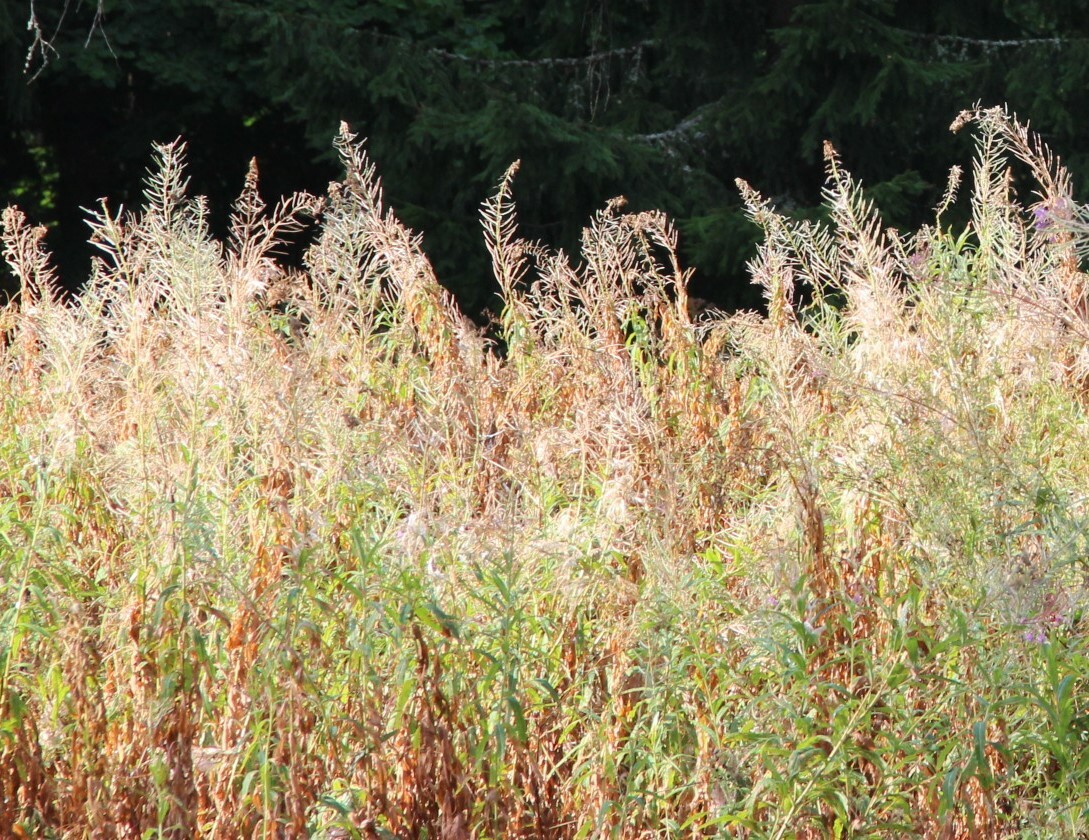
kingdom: Plantae
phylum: Tracheophyta
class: Magnoliopsida
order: Myrtales
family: Onagraceae
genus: Chamaenerion
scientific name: Chamaenerion angustifolium
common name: Fireweed
